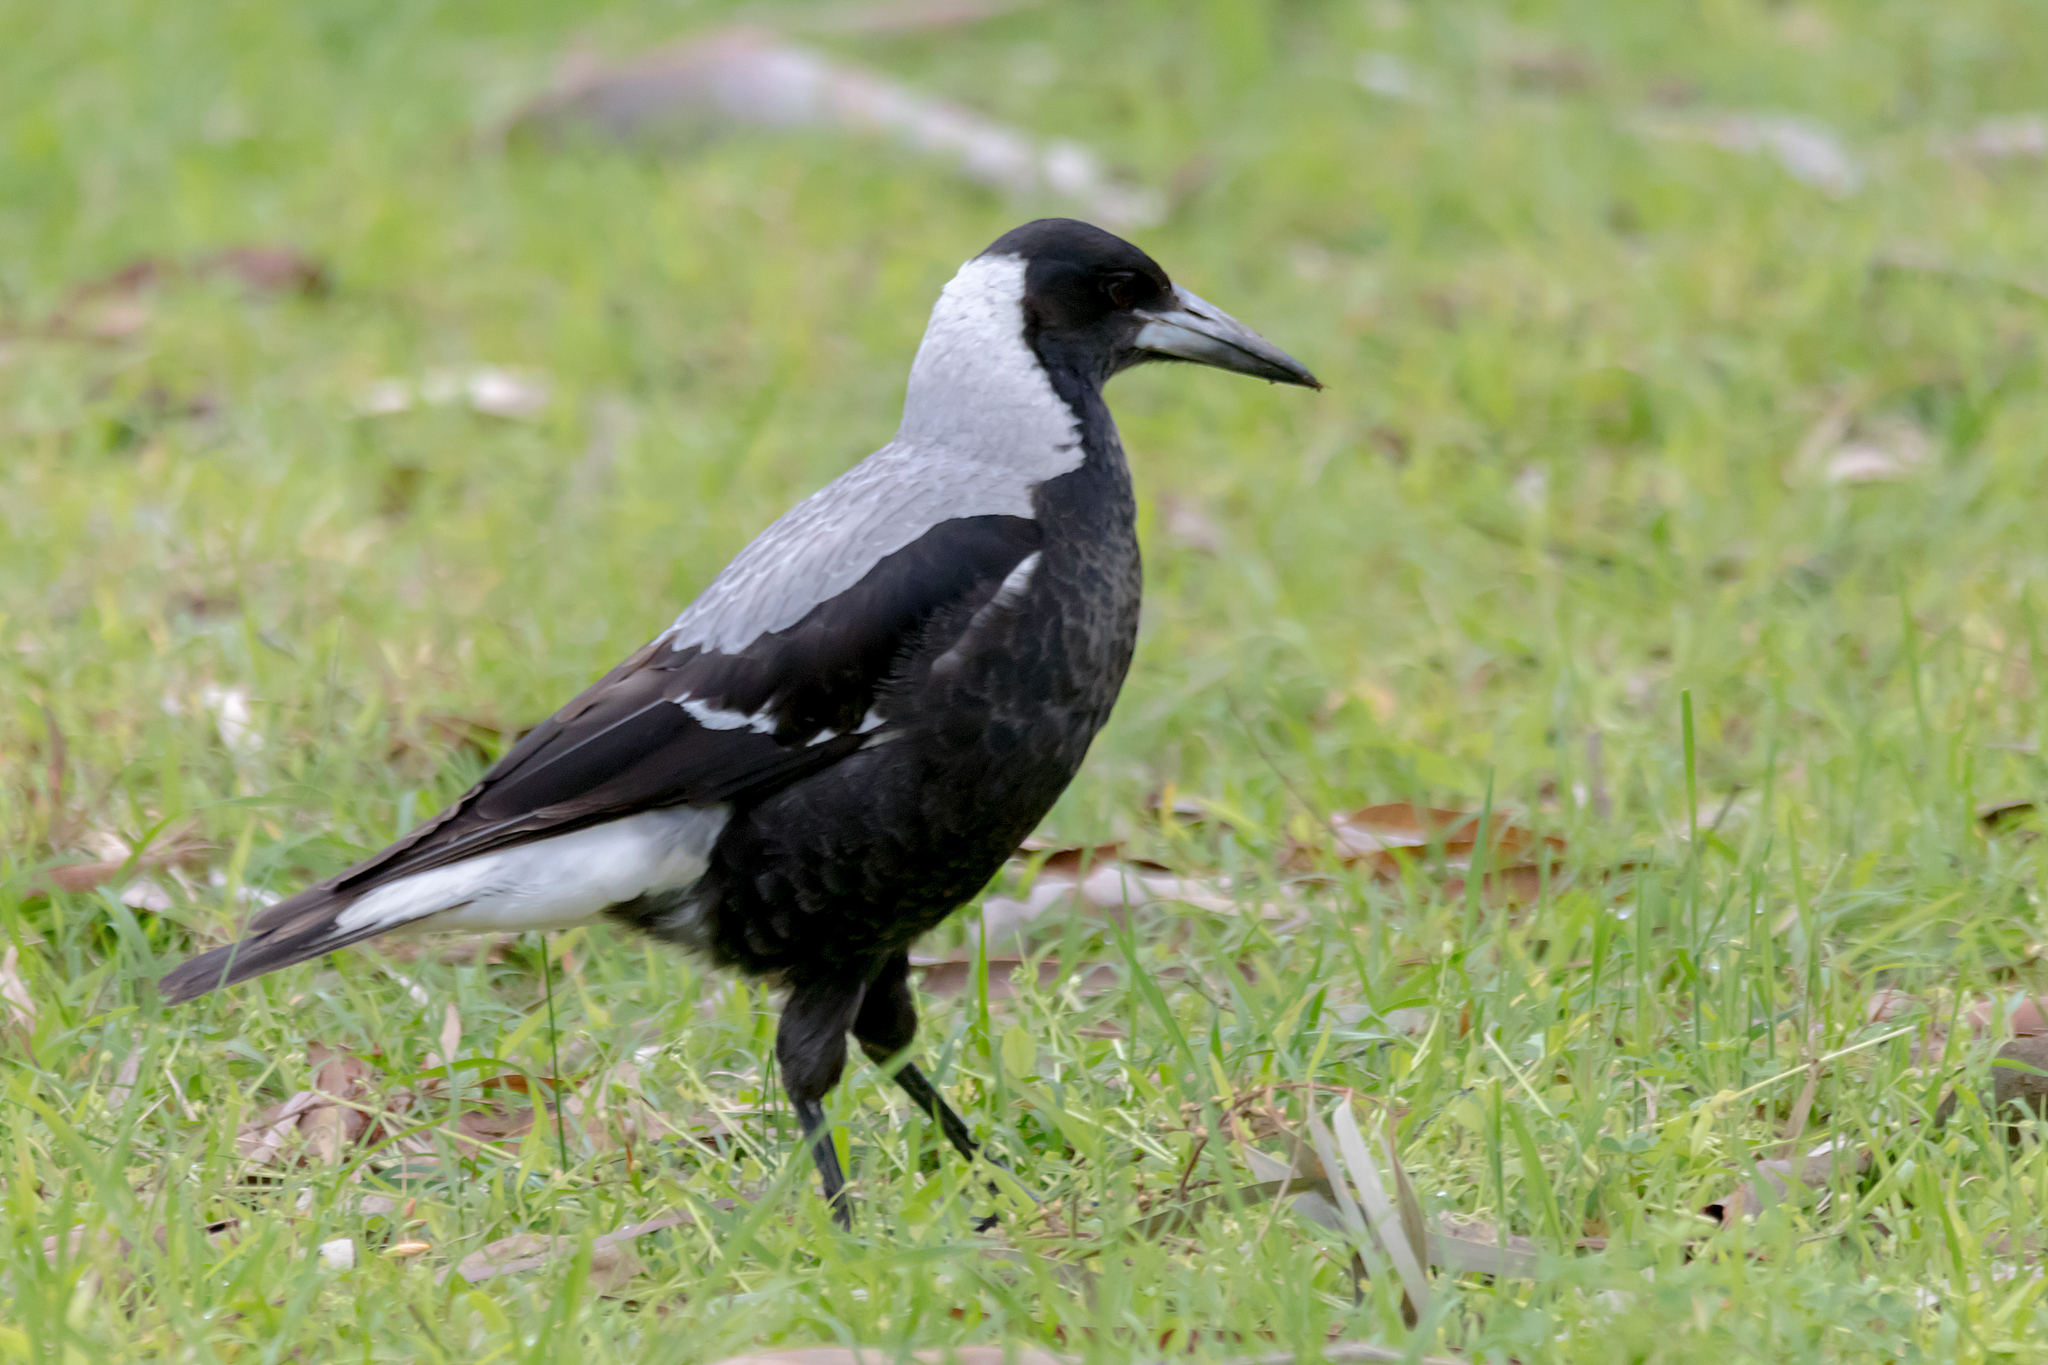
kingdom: Animalia
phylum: Chordata
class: Aves
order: Passeriformes
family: Cracticidae
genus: Gymnorhina
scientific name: Gymnorhina tibicen
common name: Australian magpie
